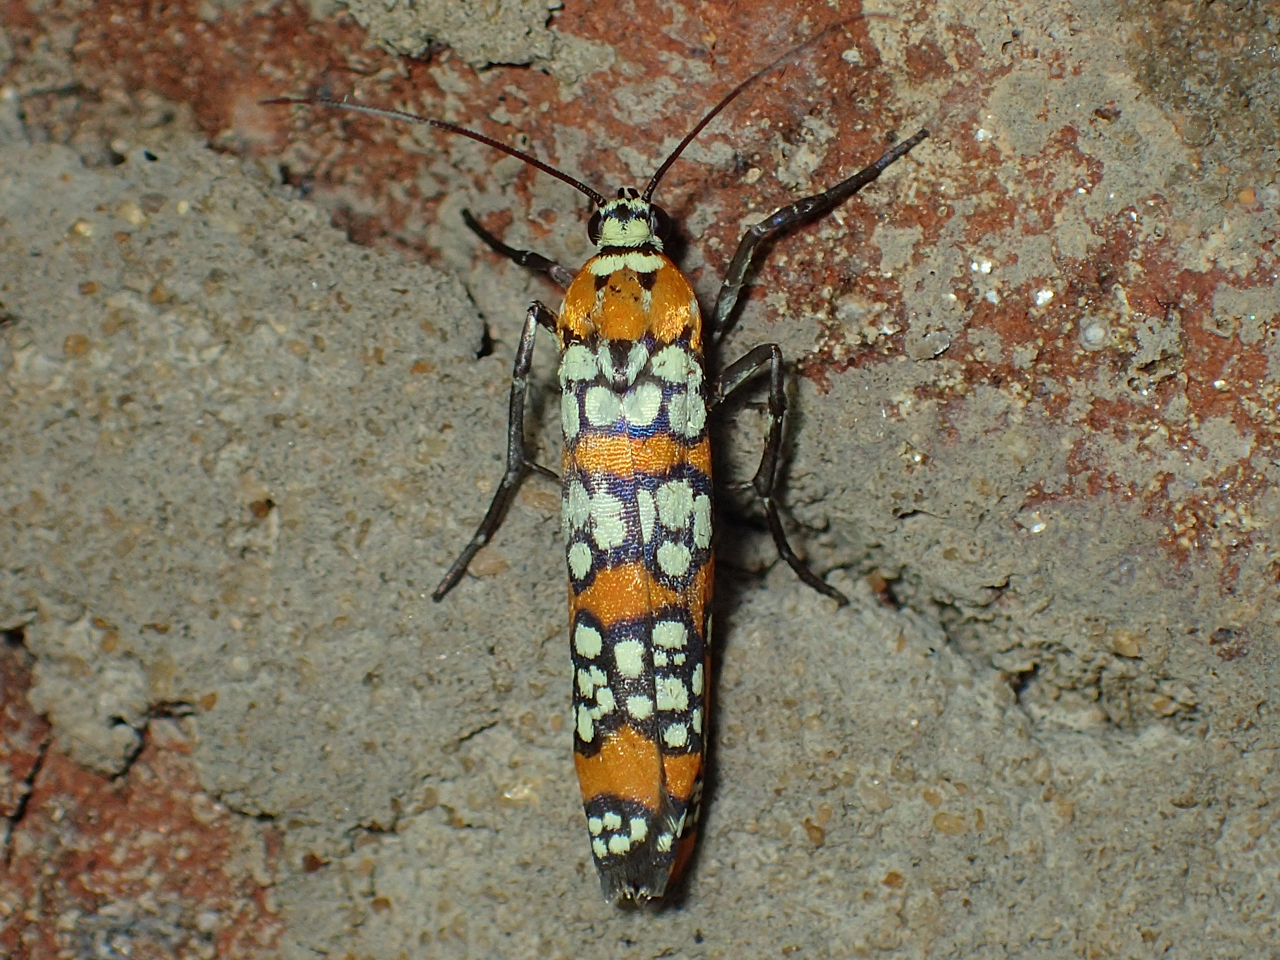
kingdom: Animalia
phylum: Arthropoda
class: Insecta
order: Lepidoptera
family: Attevidae
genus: Atteva
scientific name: Atteva punctella
